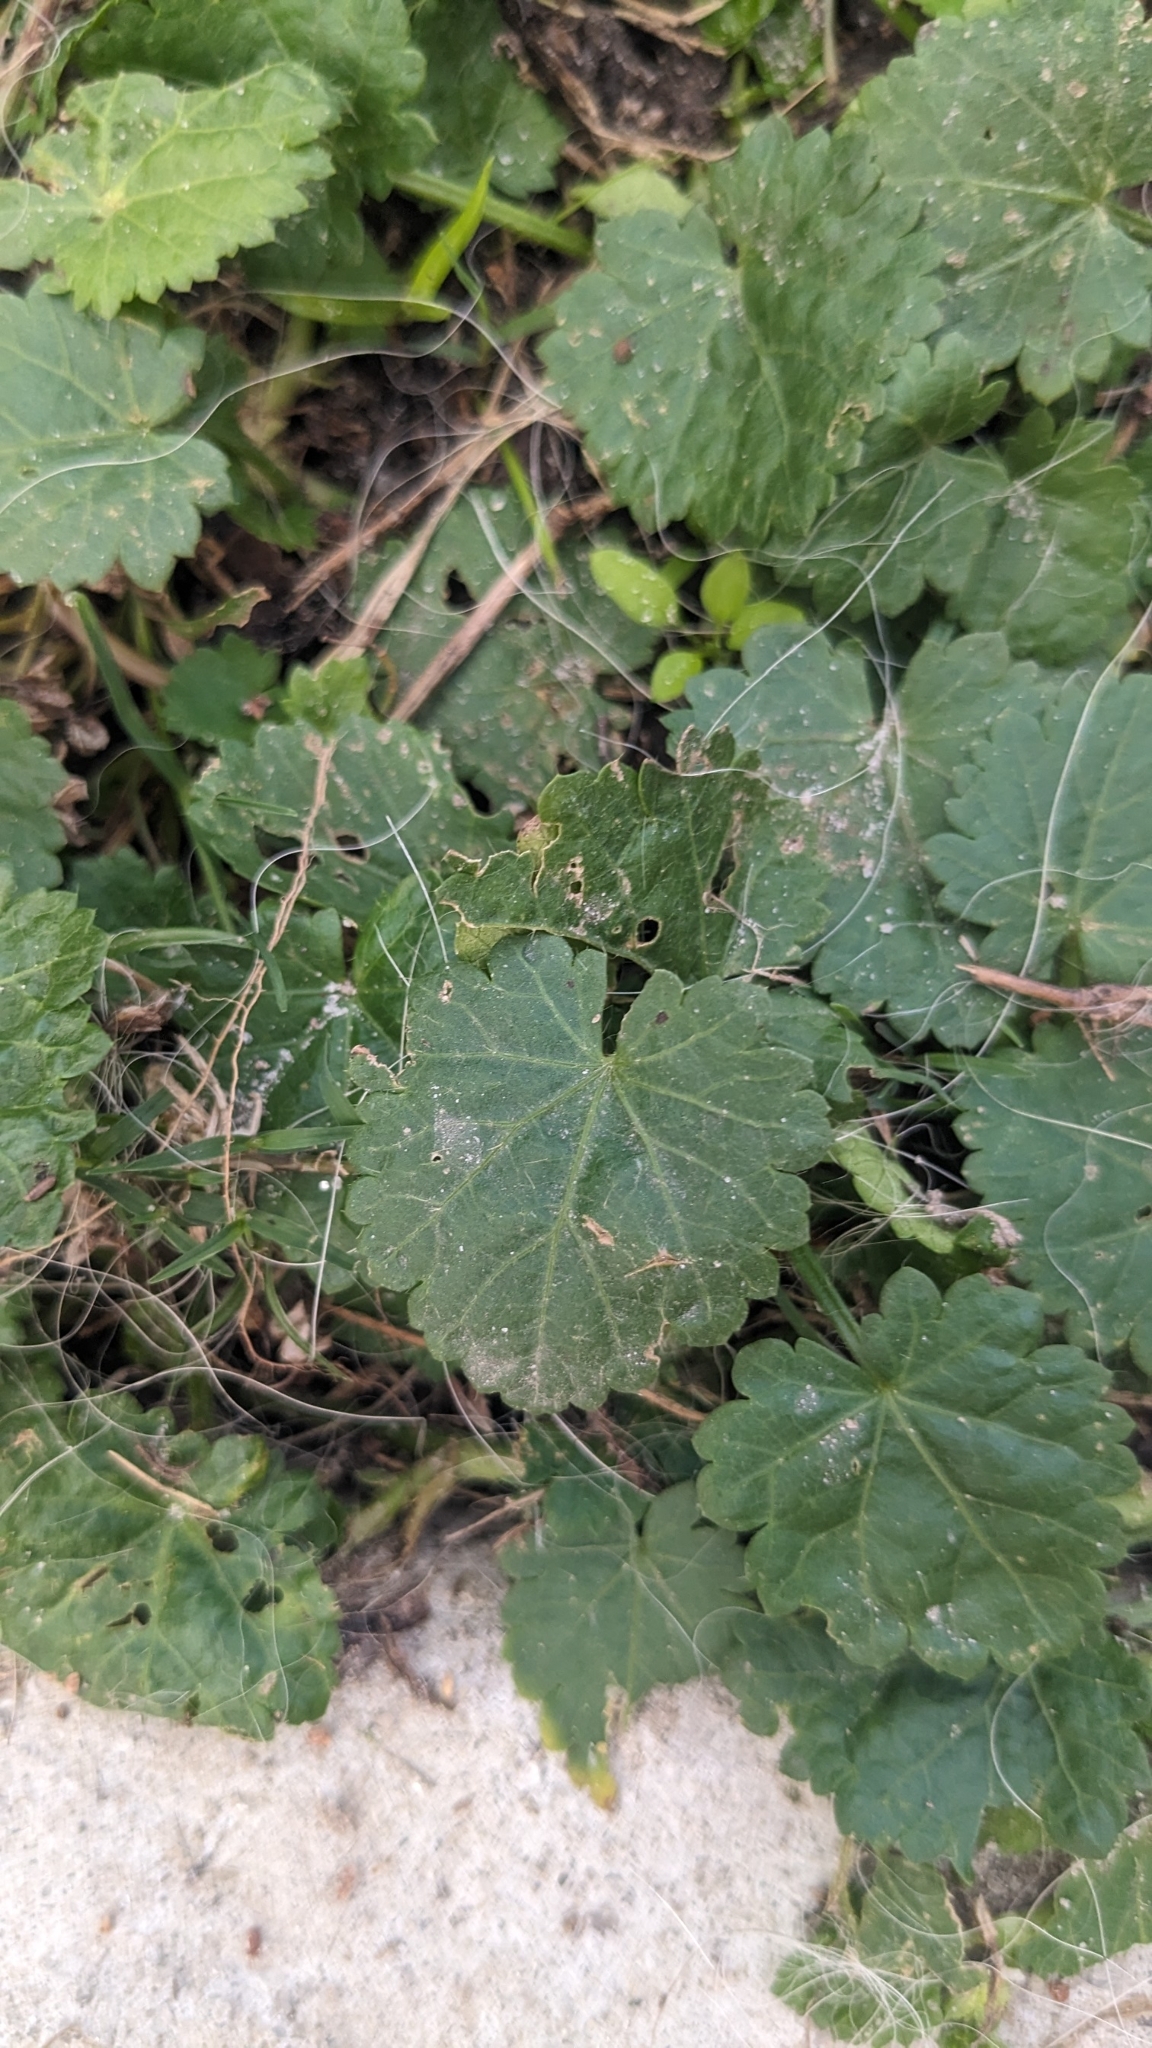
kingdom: Plantae
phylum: Tracheophyta
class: Magnoliopsida
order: Malvales
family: Malvaceae
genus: Modiola
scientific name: Modiola caroliniana
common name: Carolina bristlemallow
